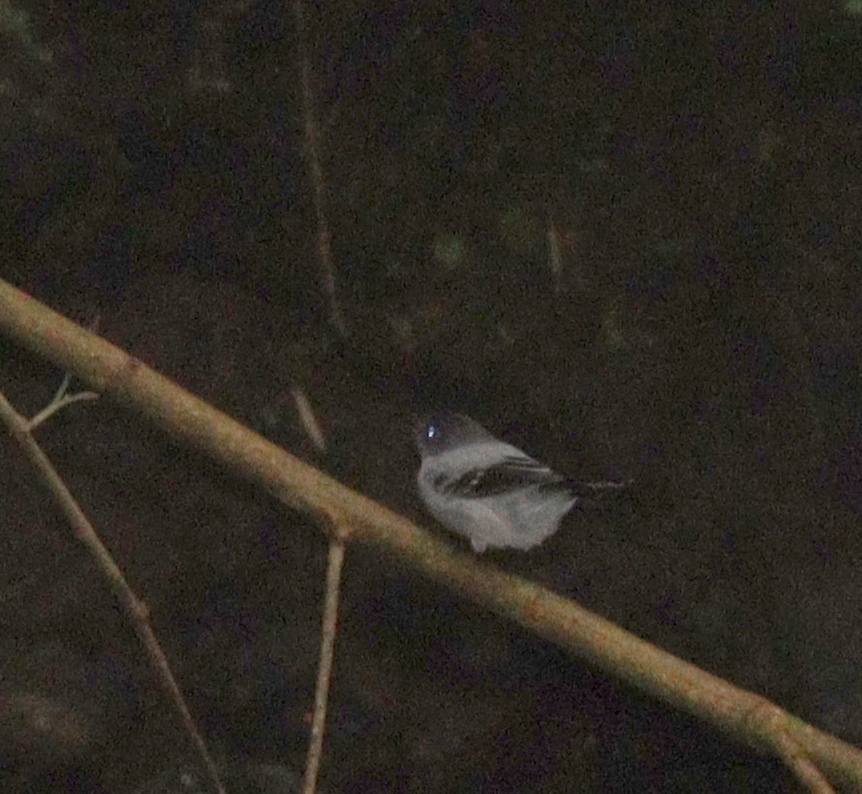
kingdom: Animalia
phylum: Chordata
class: Aves
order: Passeriformes
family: Tyrannidae
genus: Serpophaga
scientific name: Serpophaga cinerea
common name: Torrent tyrannulet
